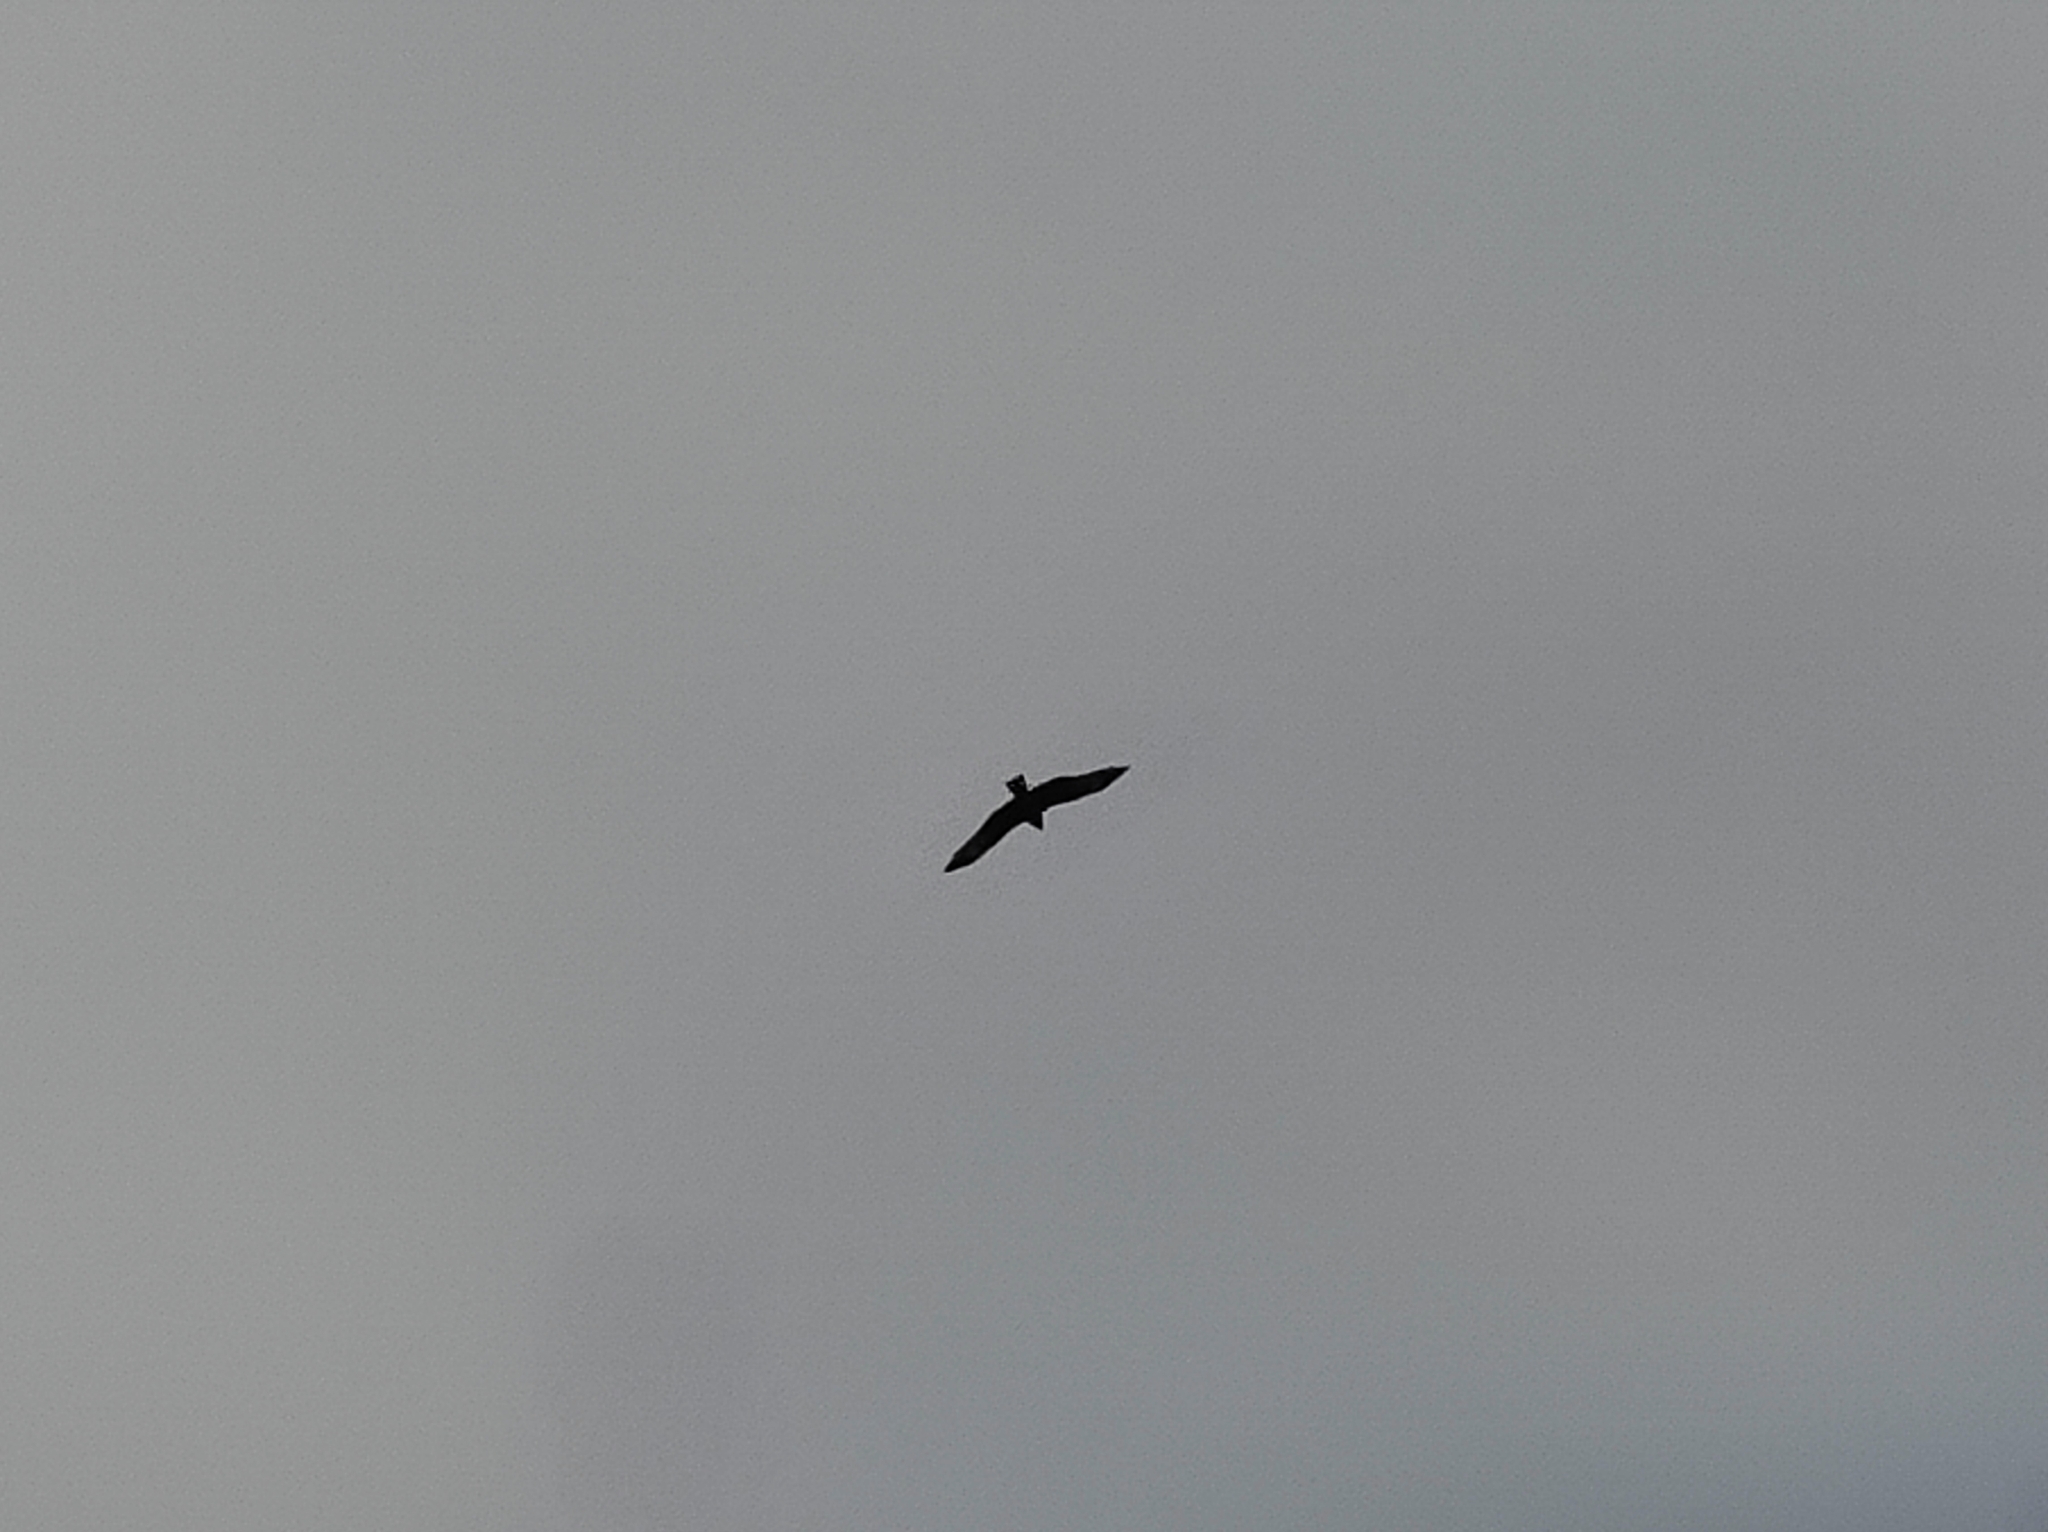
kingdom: Animalia
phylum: Chordata
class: Aves
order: Accipitriformes
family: Accipitridae
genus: Milvus
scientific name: Milvus migrans
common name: Black kite
